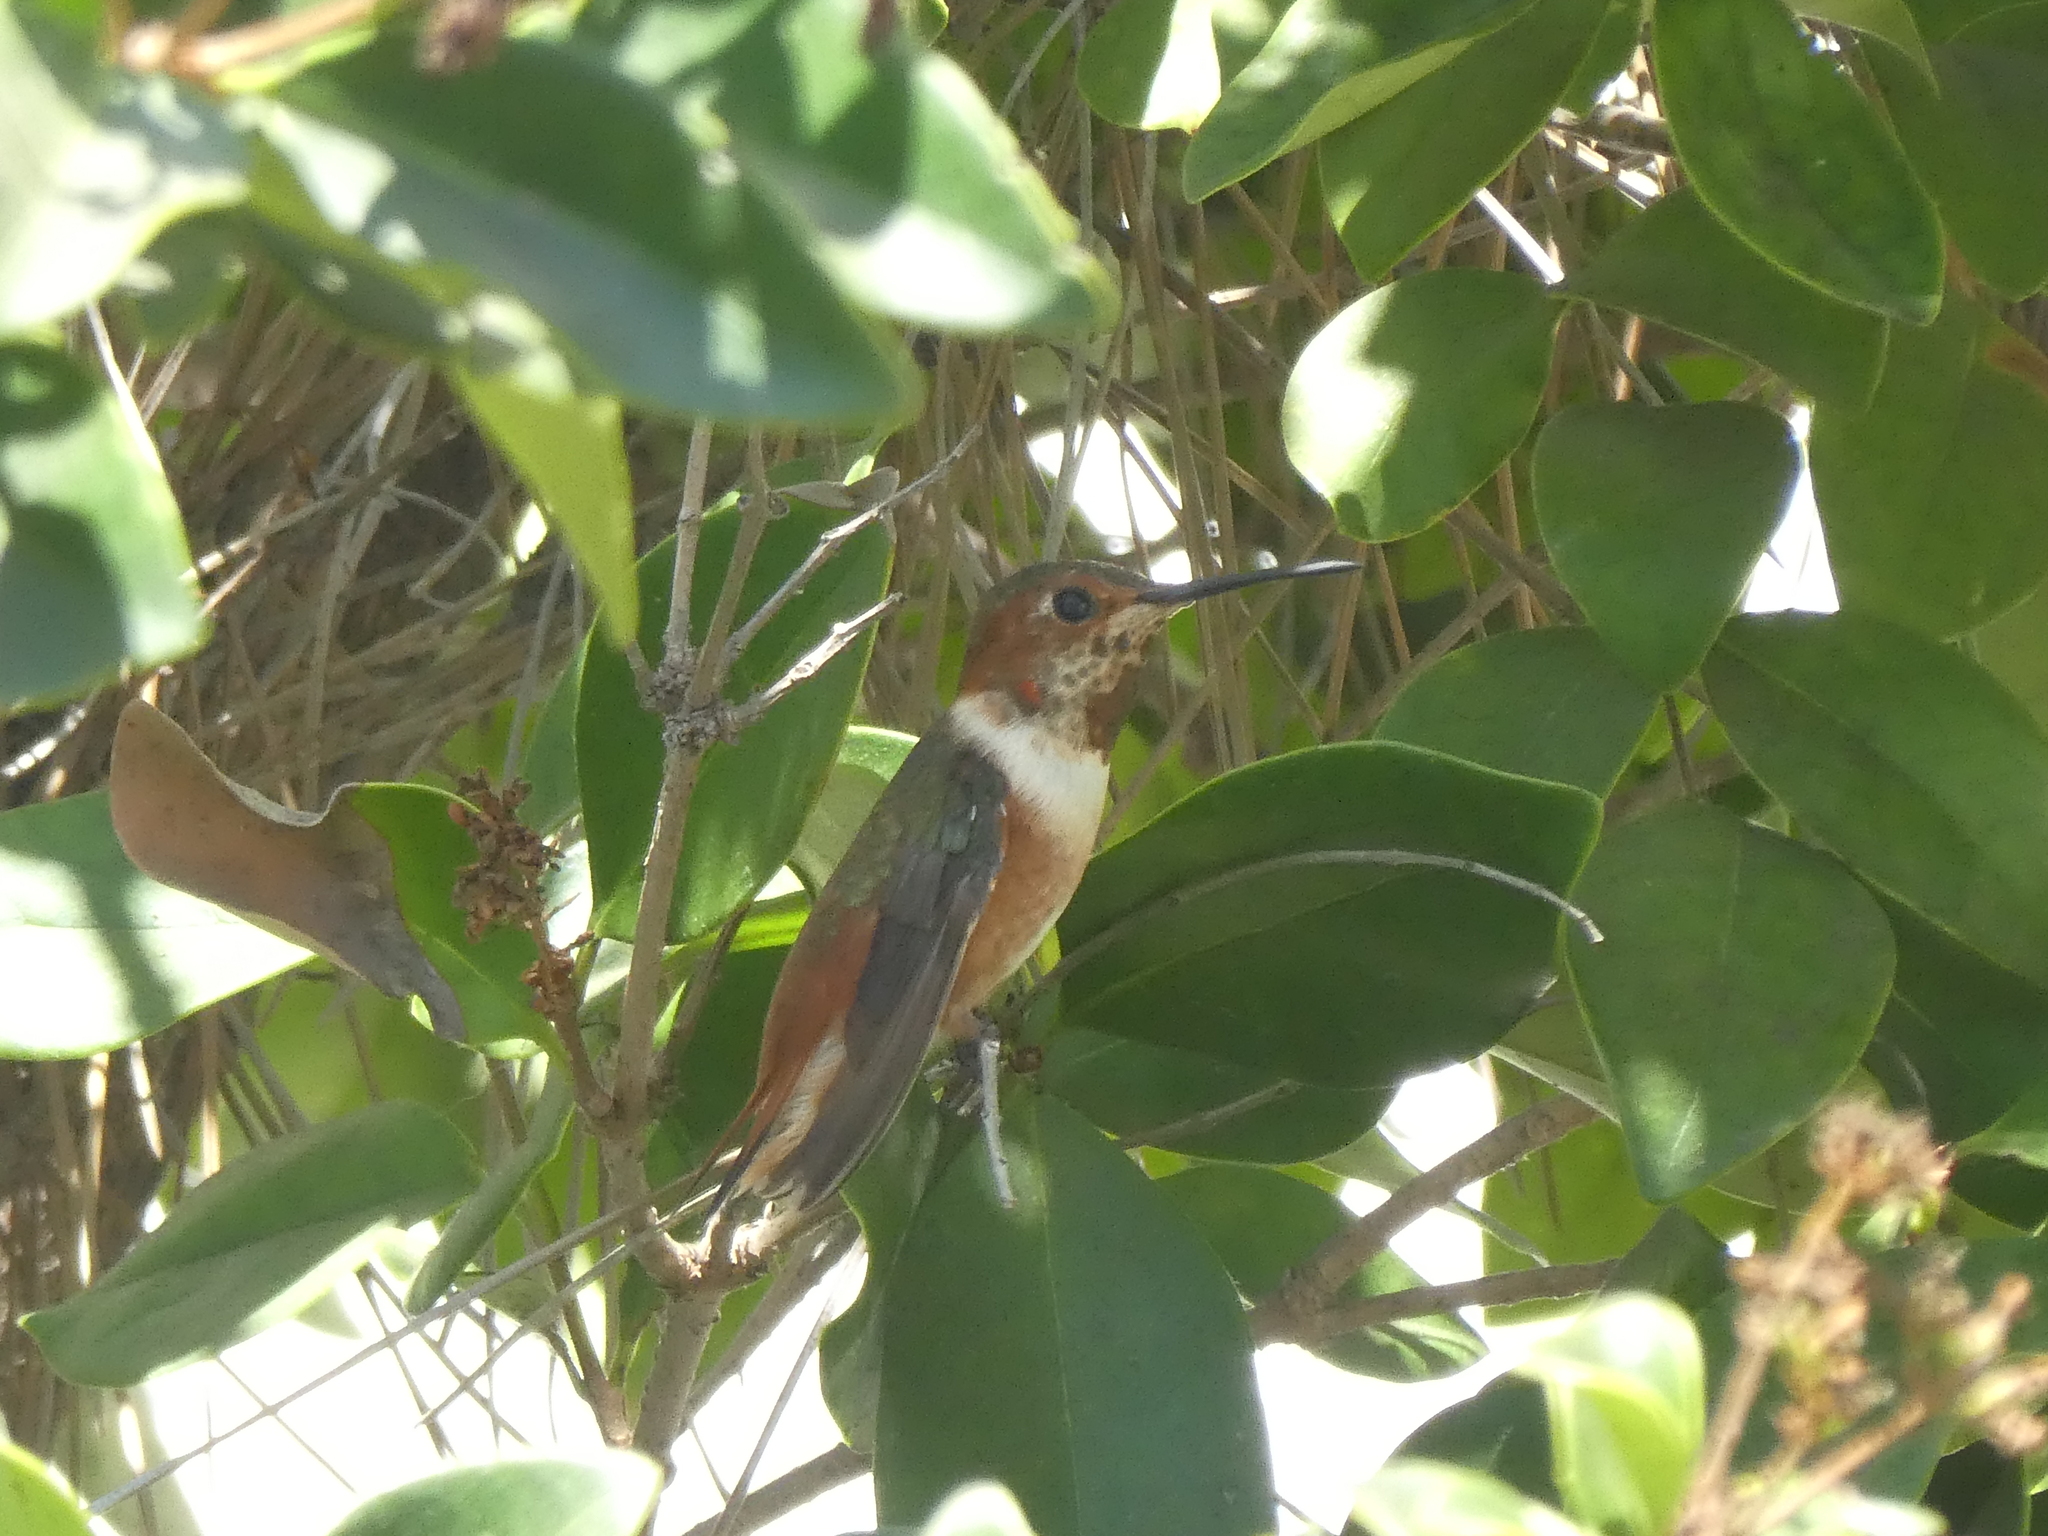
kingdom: Animalia
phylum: Chordata
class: Aves
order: Apodiformes
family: Trochilidae
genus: Selasphorus
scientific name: Selasphorus
